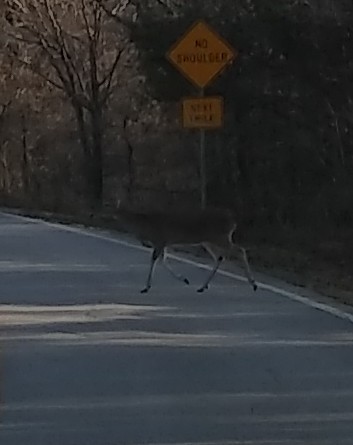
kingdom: Animalia
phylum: Chordata
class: Mammalia
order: Artiodactyla
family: Cervidae
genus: Odocoileus
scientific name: Odocoileus virginianus
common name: White-tailed deer
